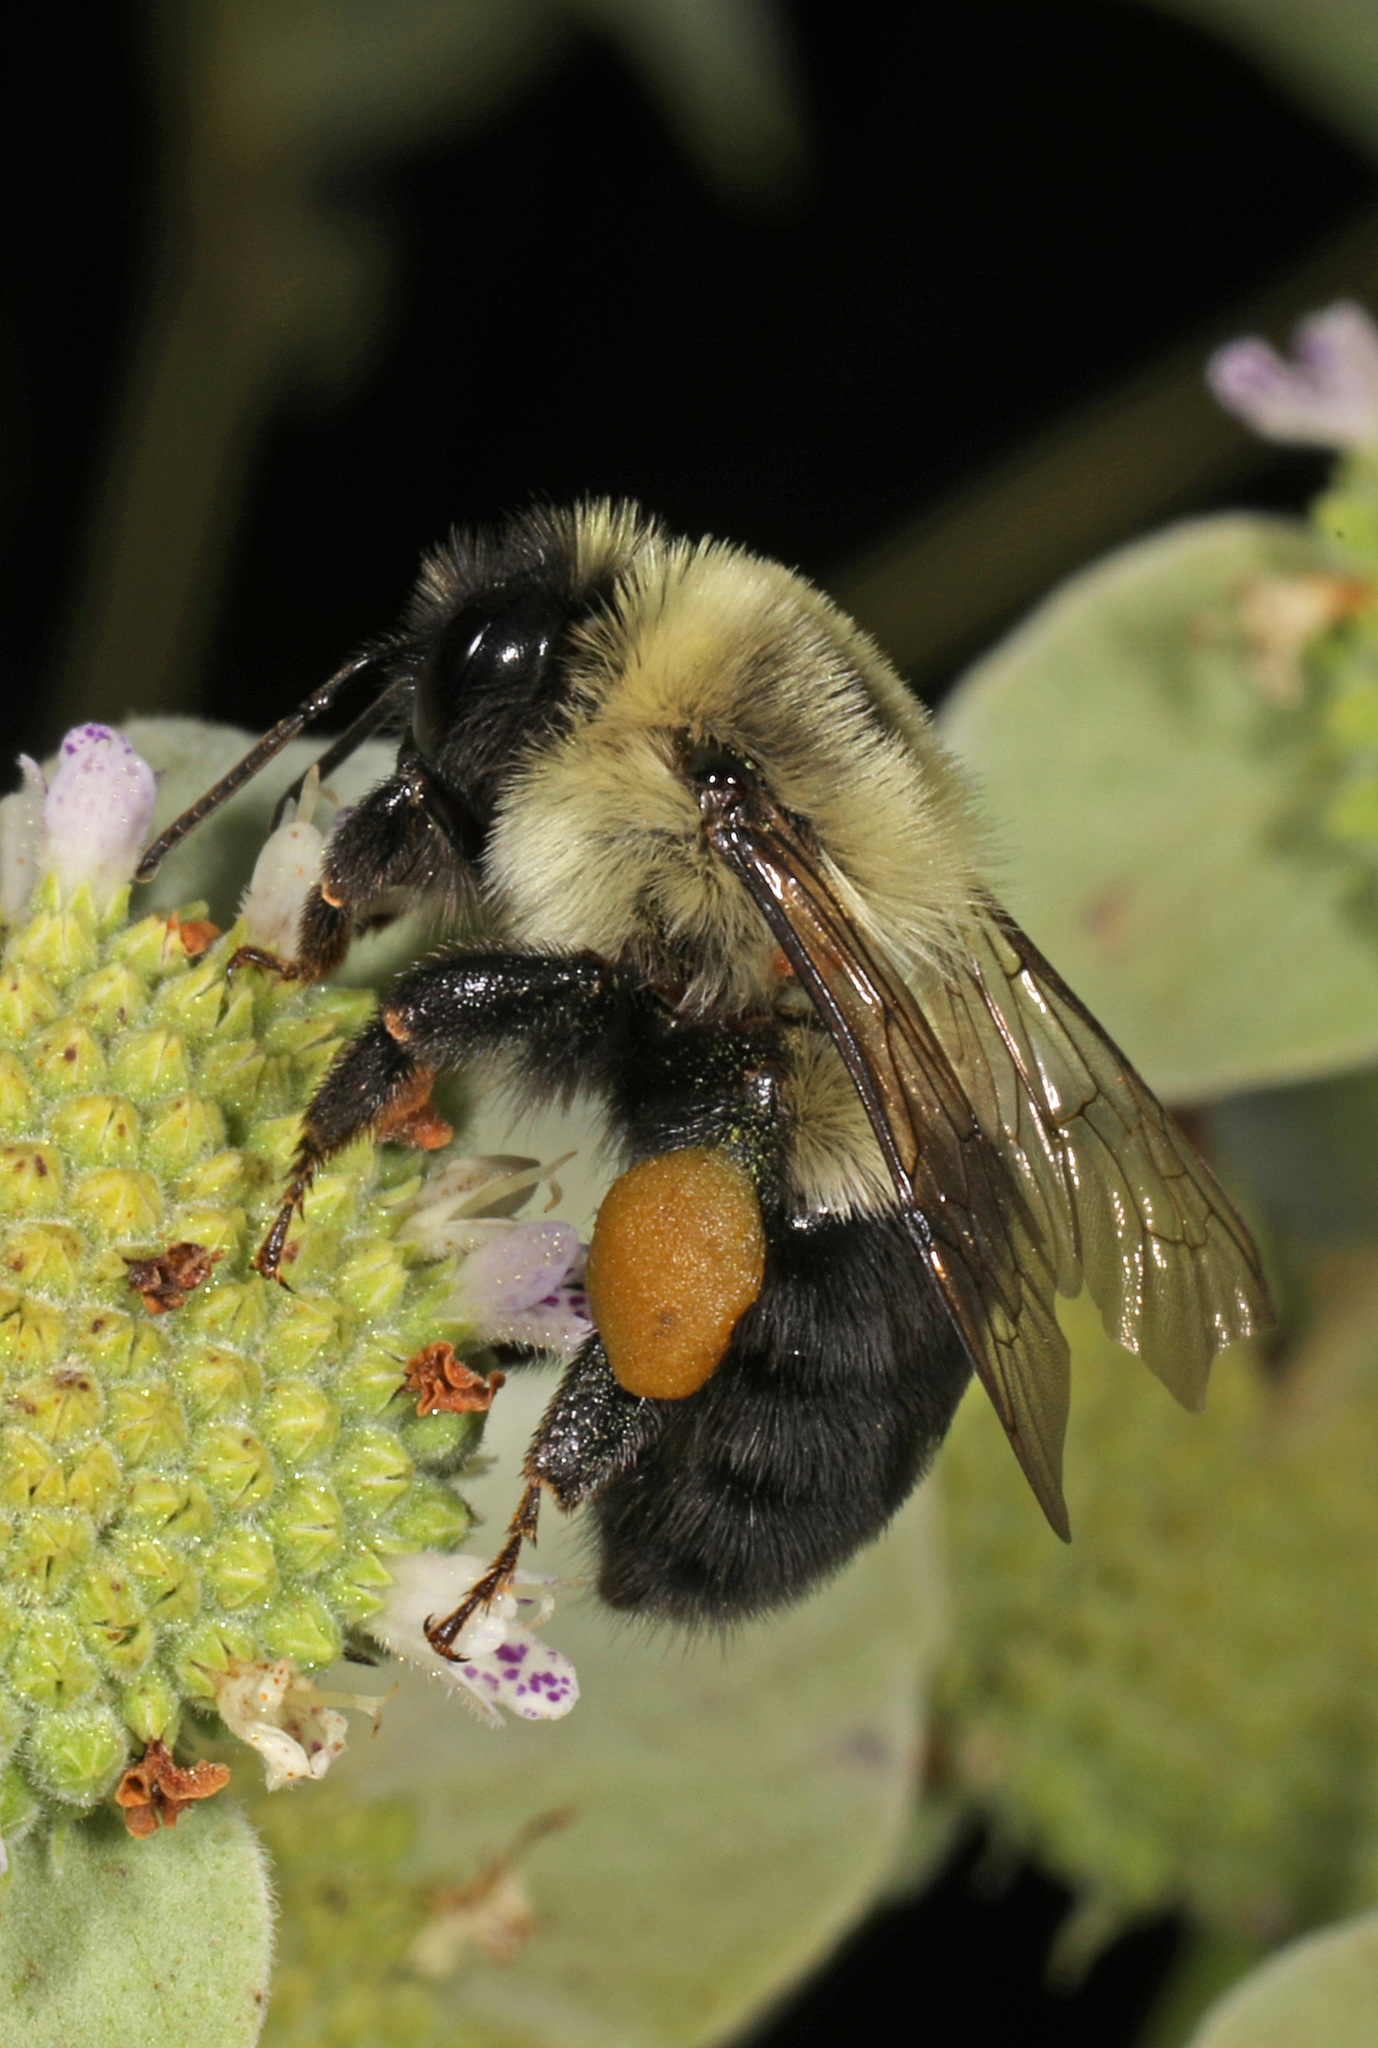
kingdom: Animalia
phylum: Arthropoda
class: Insecta
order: Hymenoptera
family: Apidae
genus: Bombus
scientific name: Bombus impatiens
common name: Common eastern bumble bee
